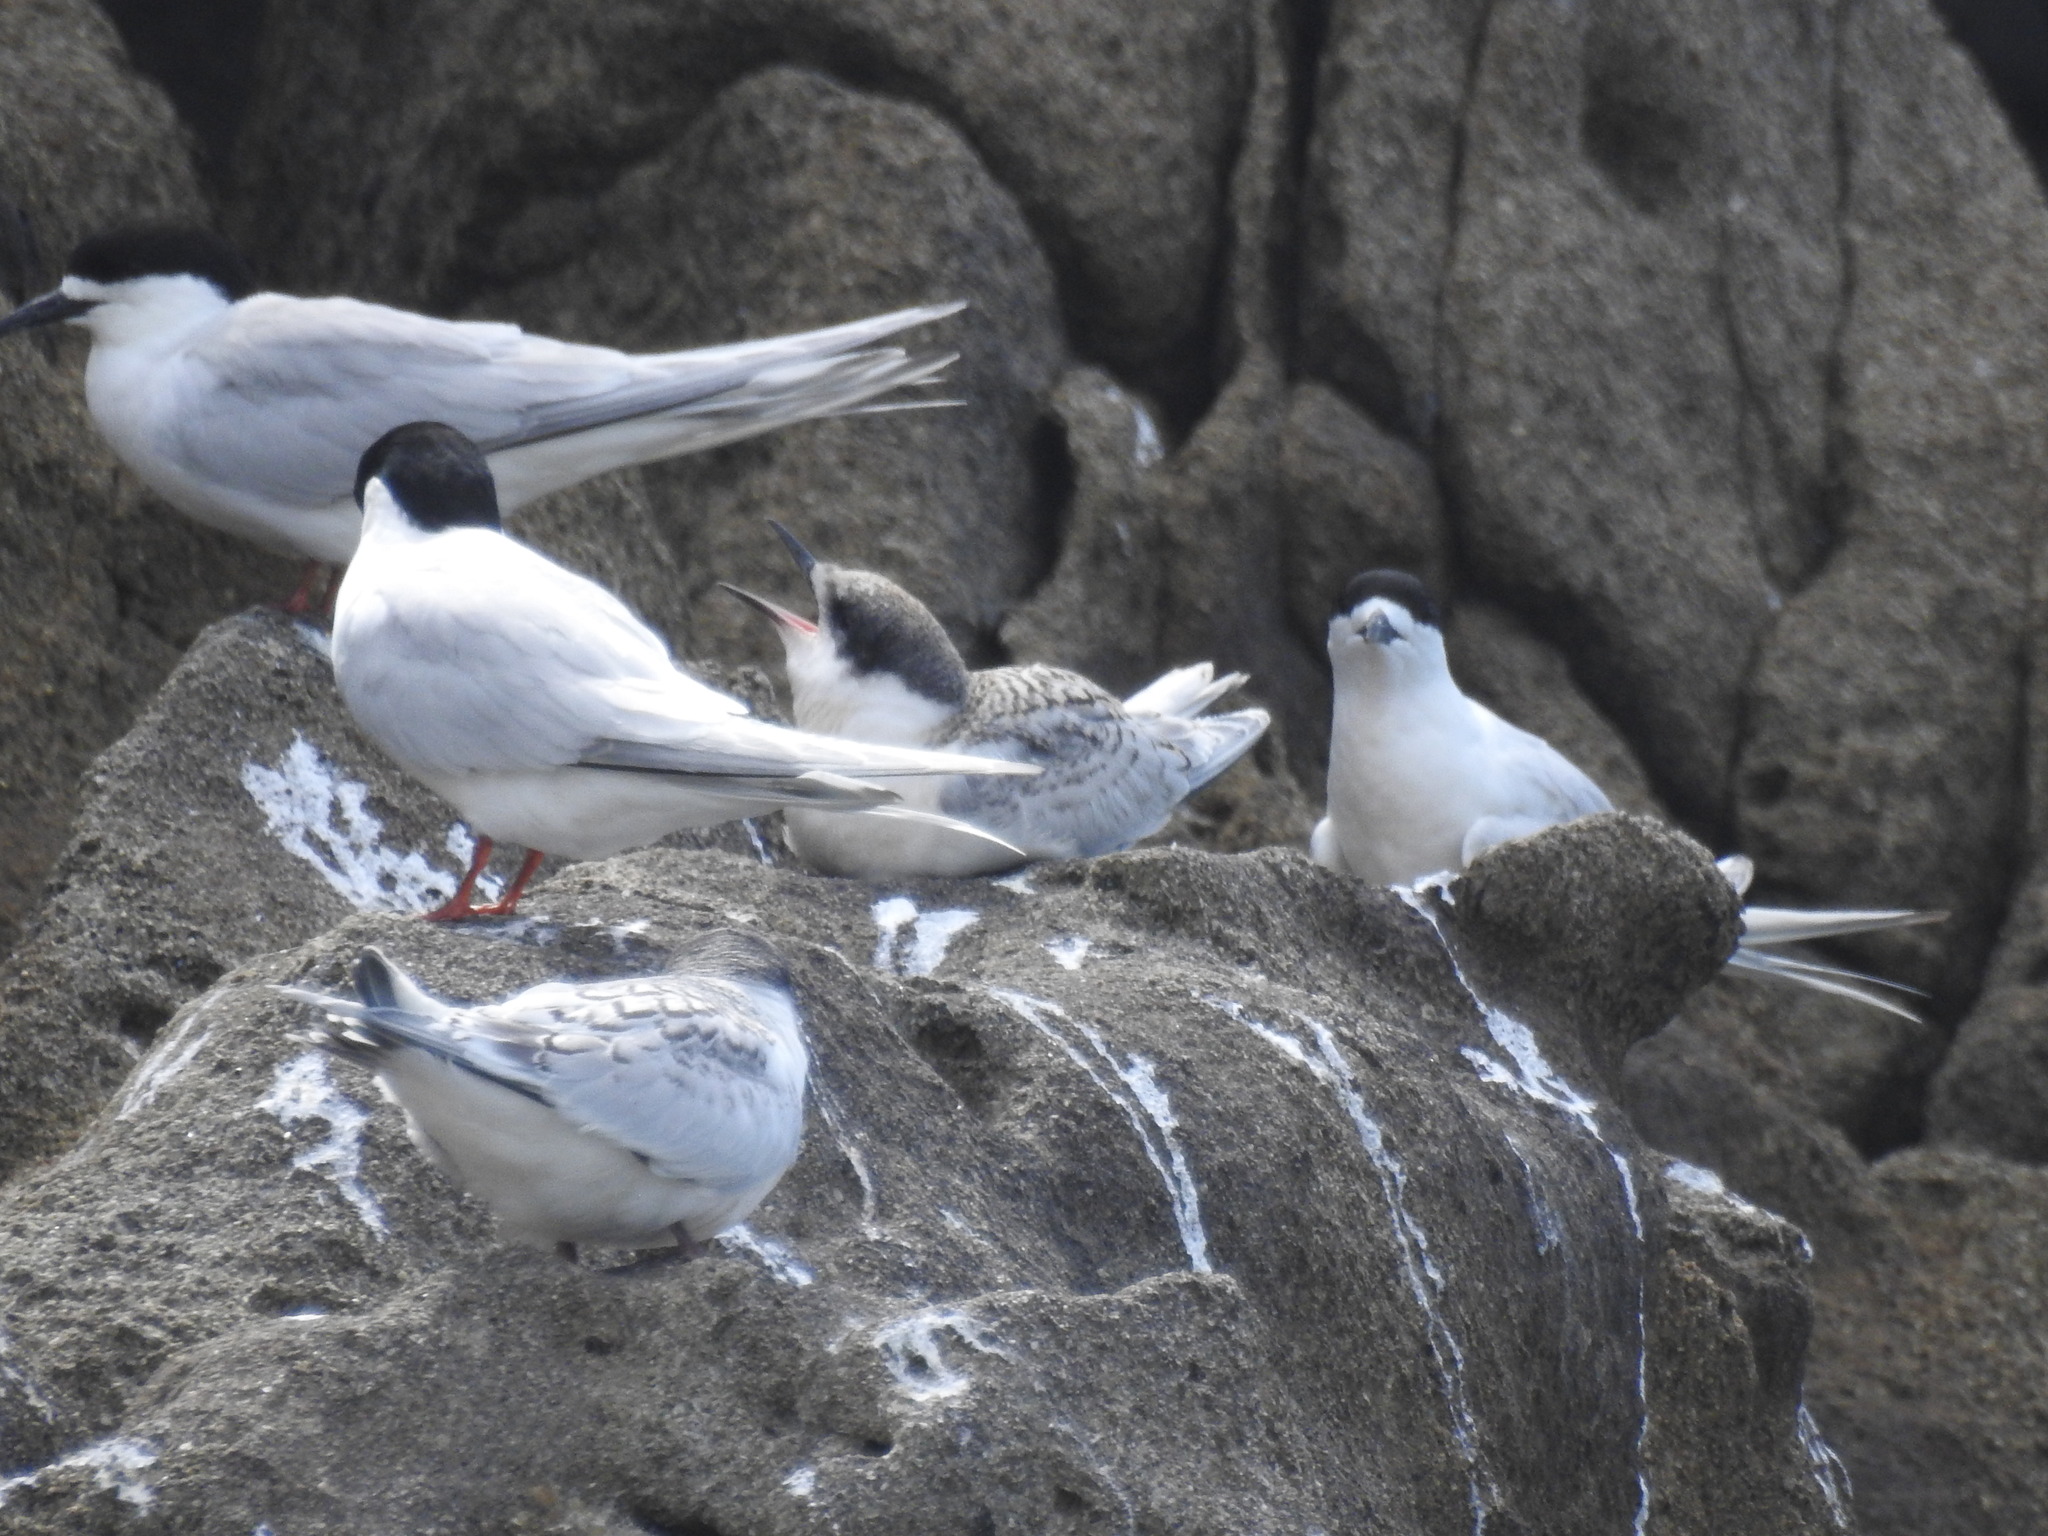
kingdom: Animalia
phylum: Chordata
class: Aves
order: Charadriiformes
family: Laridae
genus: Sterna
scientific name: Sterna striata
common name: White-fronted tern
